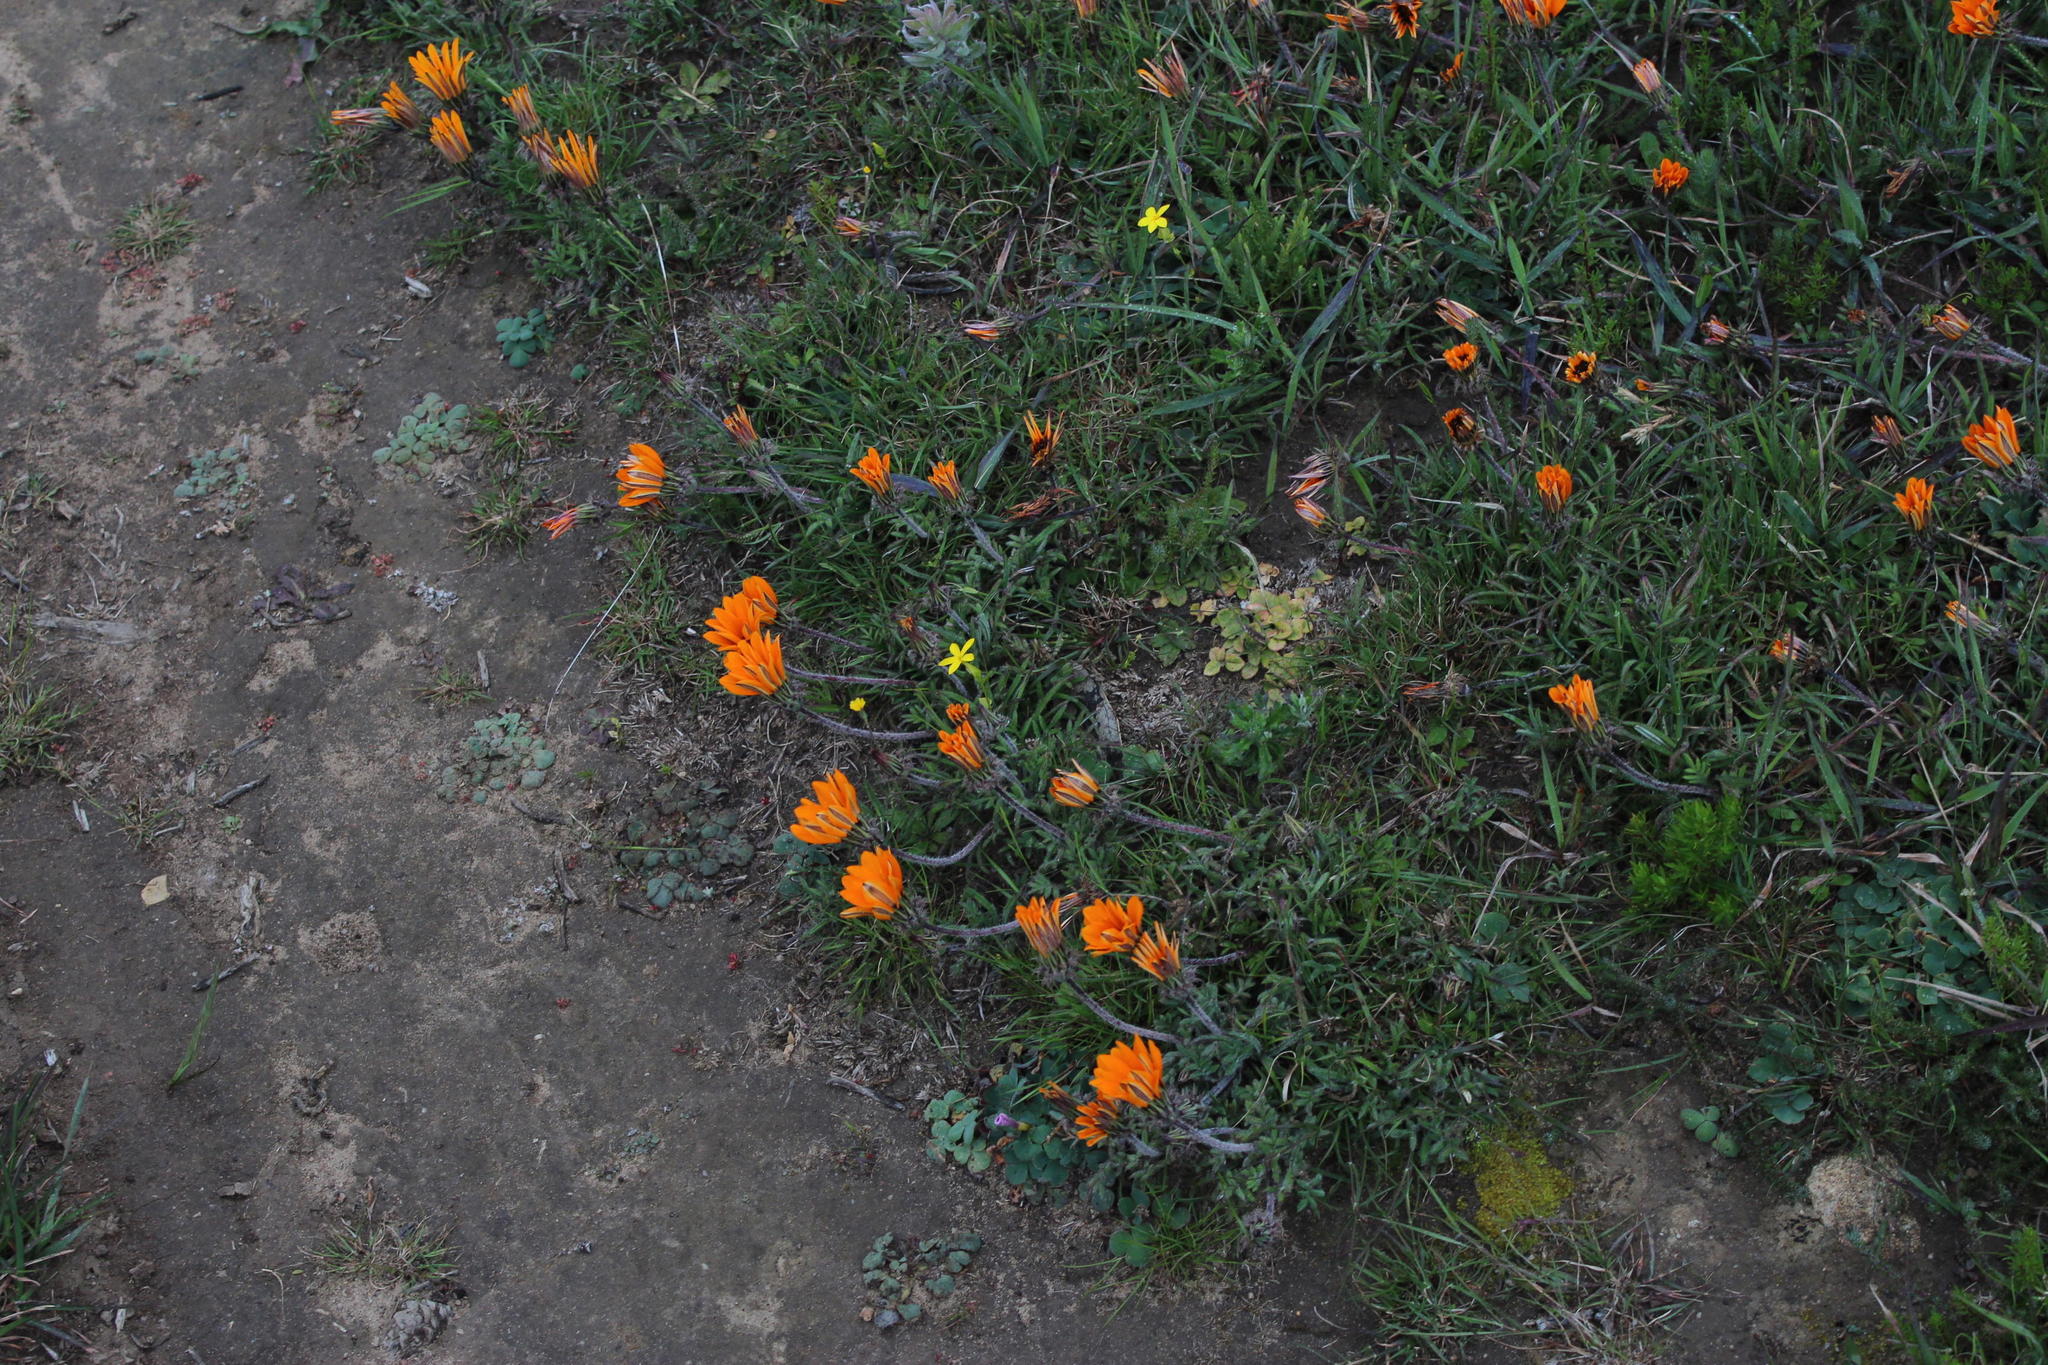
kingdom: Plantae
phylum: Tracheophyta
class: Magnoliopsida
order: Asterales
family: Asteraceae
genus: Gazania
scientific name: Gazania ciliaris
